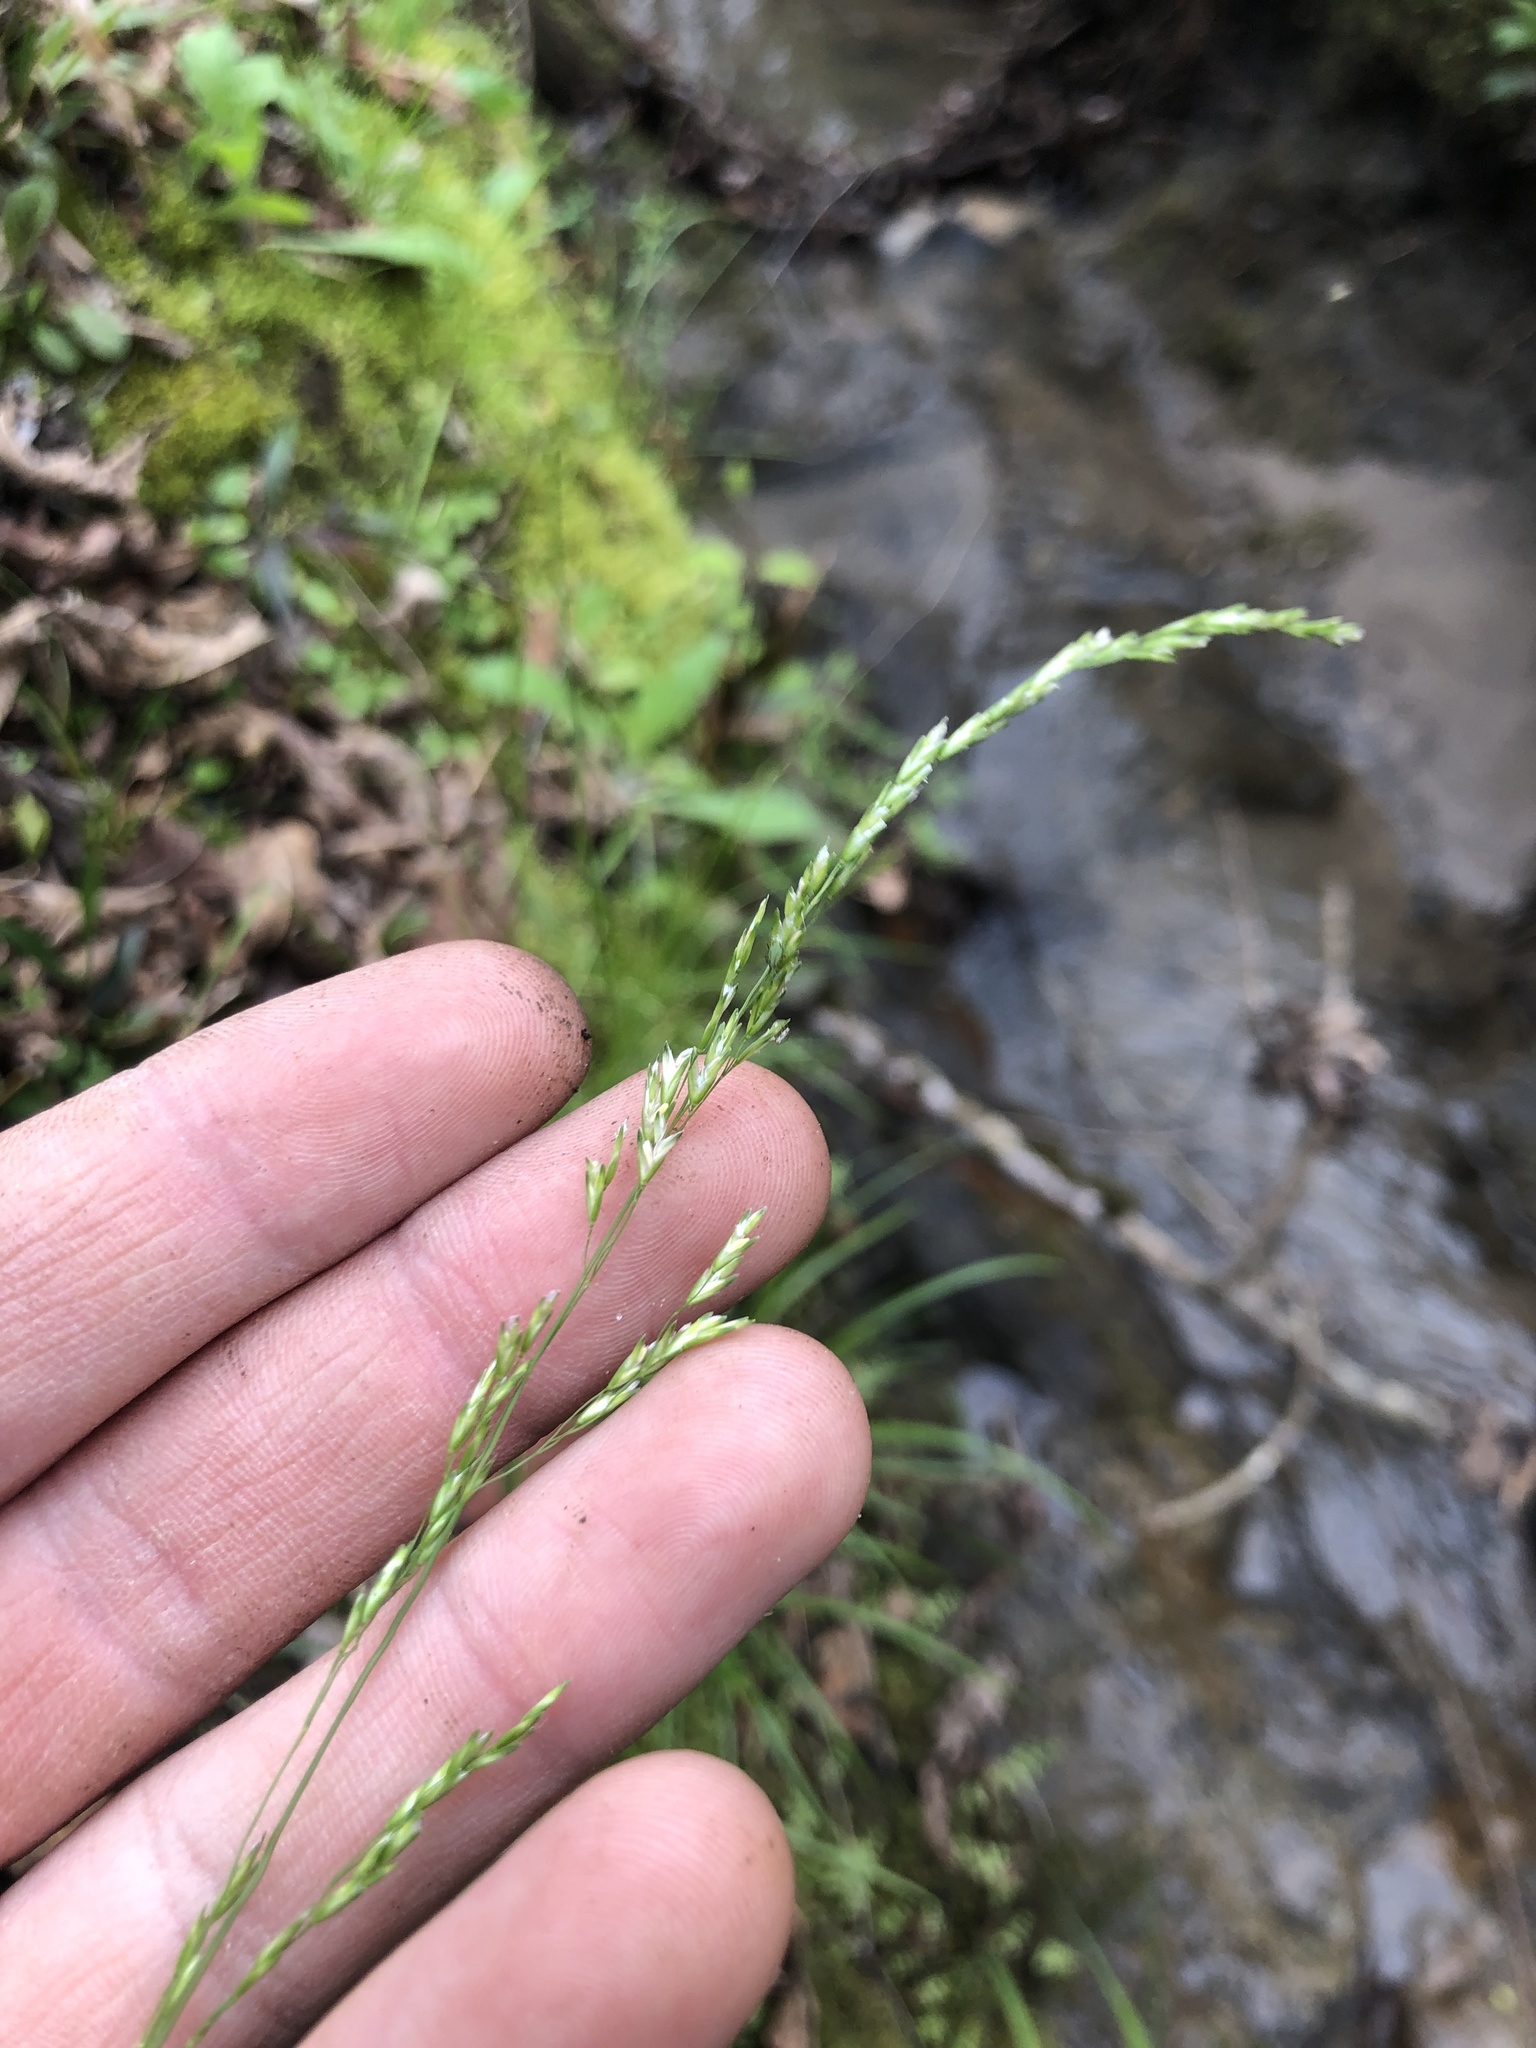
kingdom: Plantae
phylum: Tracheophyta
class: Liliopsida
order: Poales
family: Poaceae
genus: Sphenopholis
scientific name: Sphenopholis nitida
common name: Shiny wedgegrass
